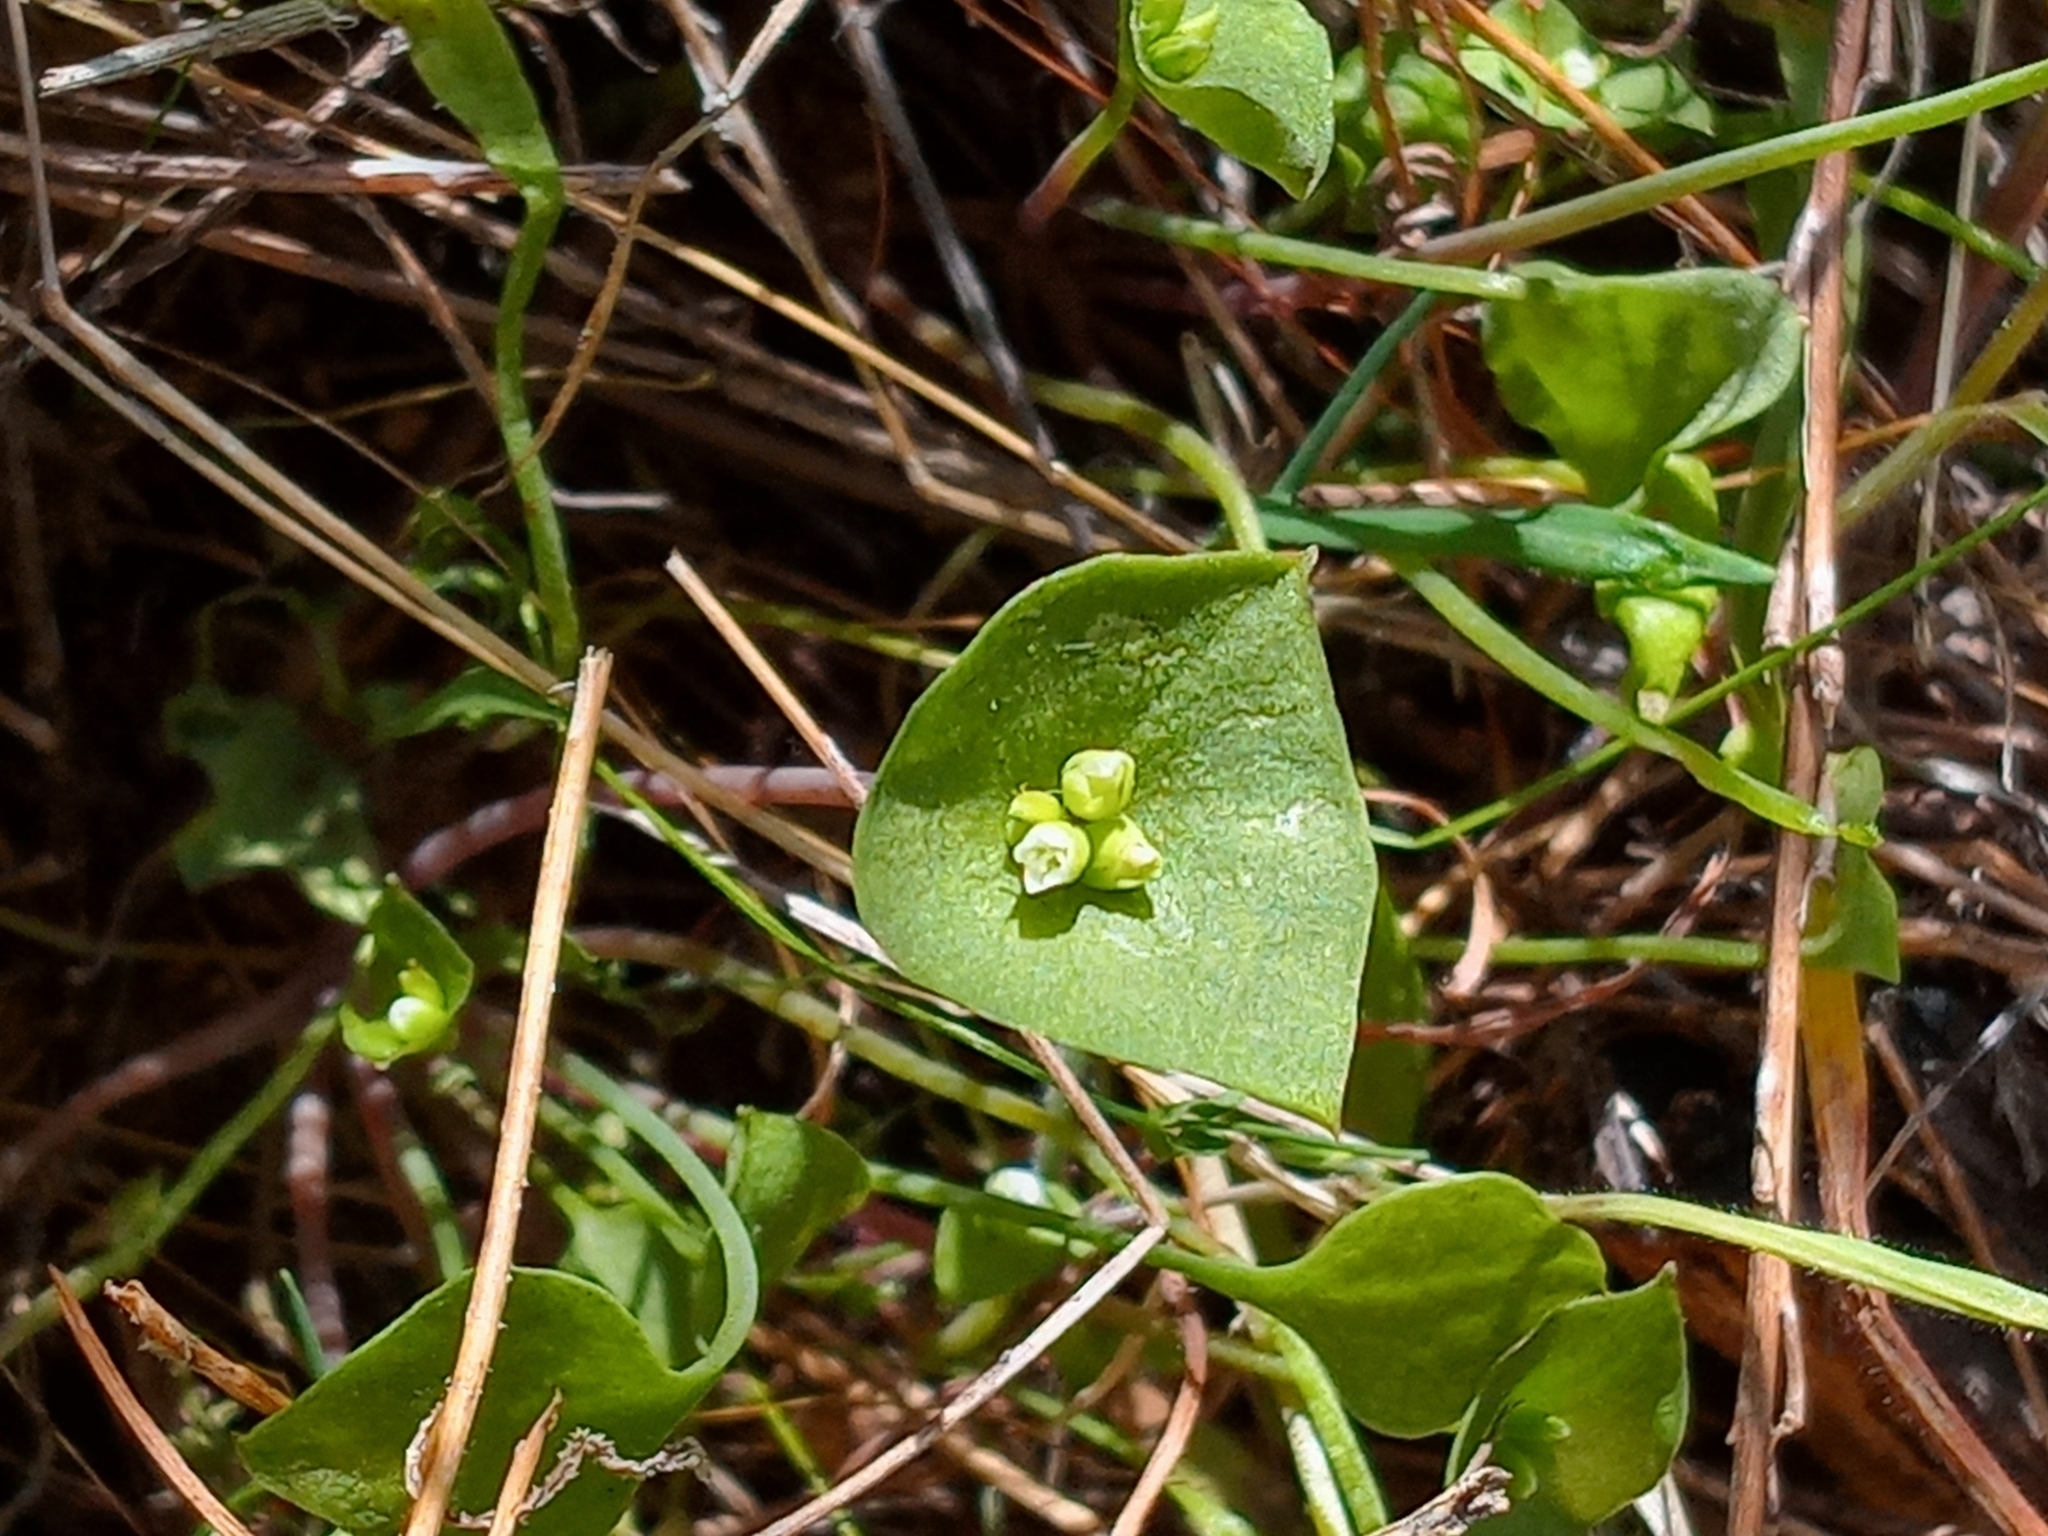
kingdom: Plantae
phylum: Tracheophyta
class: Magnoliopsida
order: Caryophyllales
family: Montiaceae
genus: Claytonia
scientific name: Claytonia perfoliata
